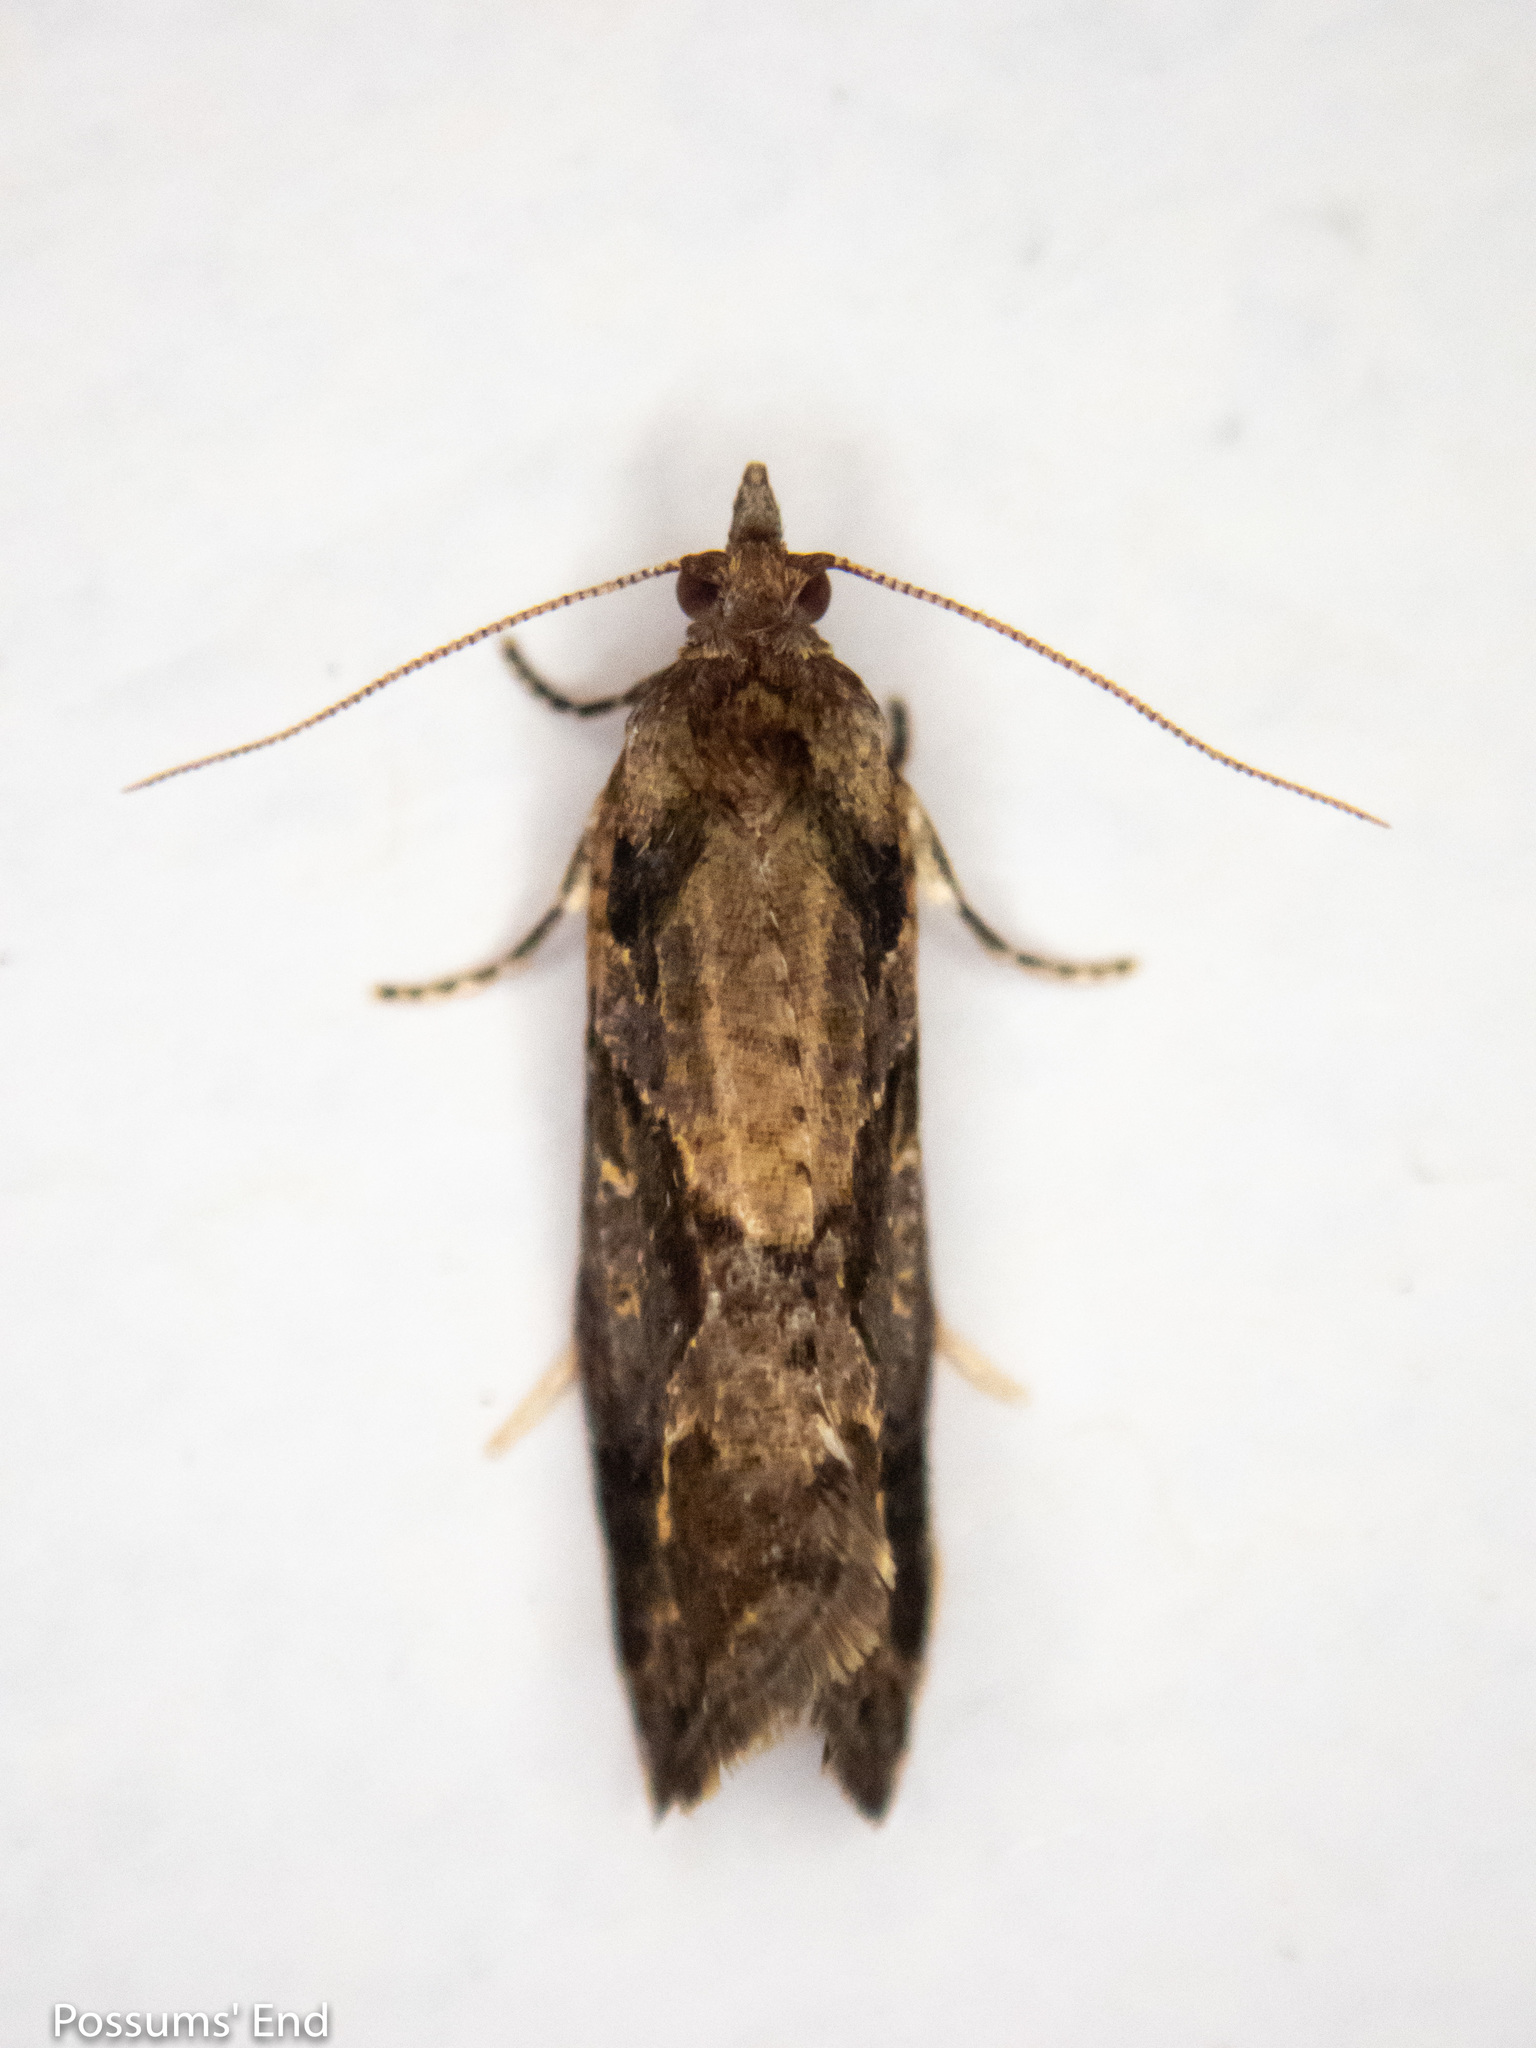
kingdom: Animalia
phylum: Arthropoda
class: Insecta
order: Lepidoptera
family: Tortricidae
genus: Pyrgotis
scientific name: Pyrgotis plagiatana
